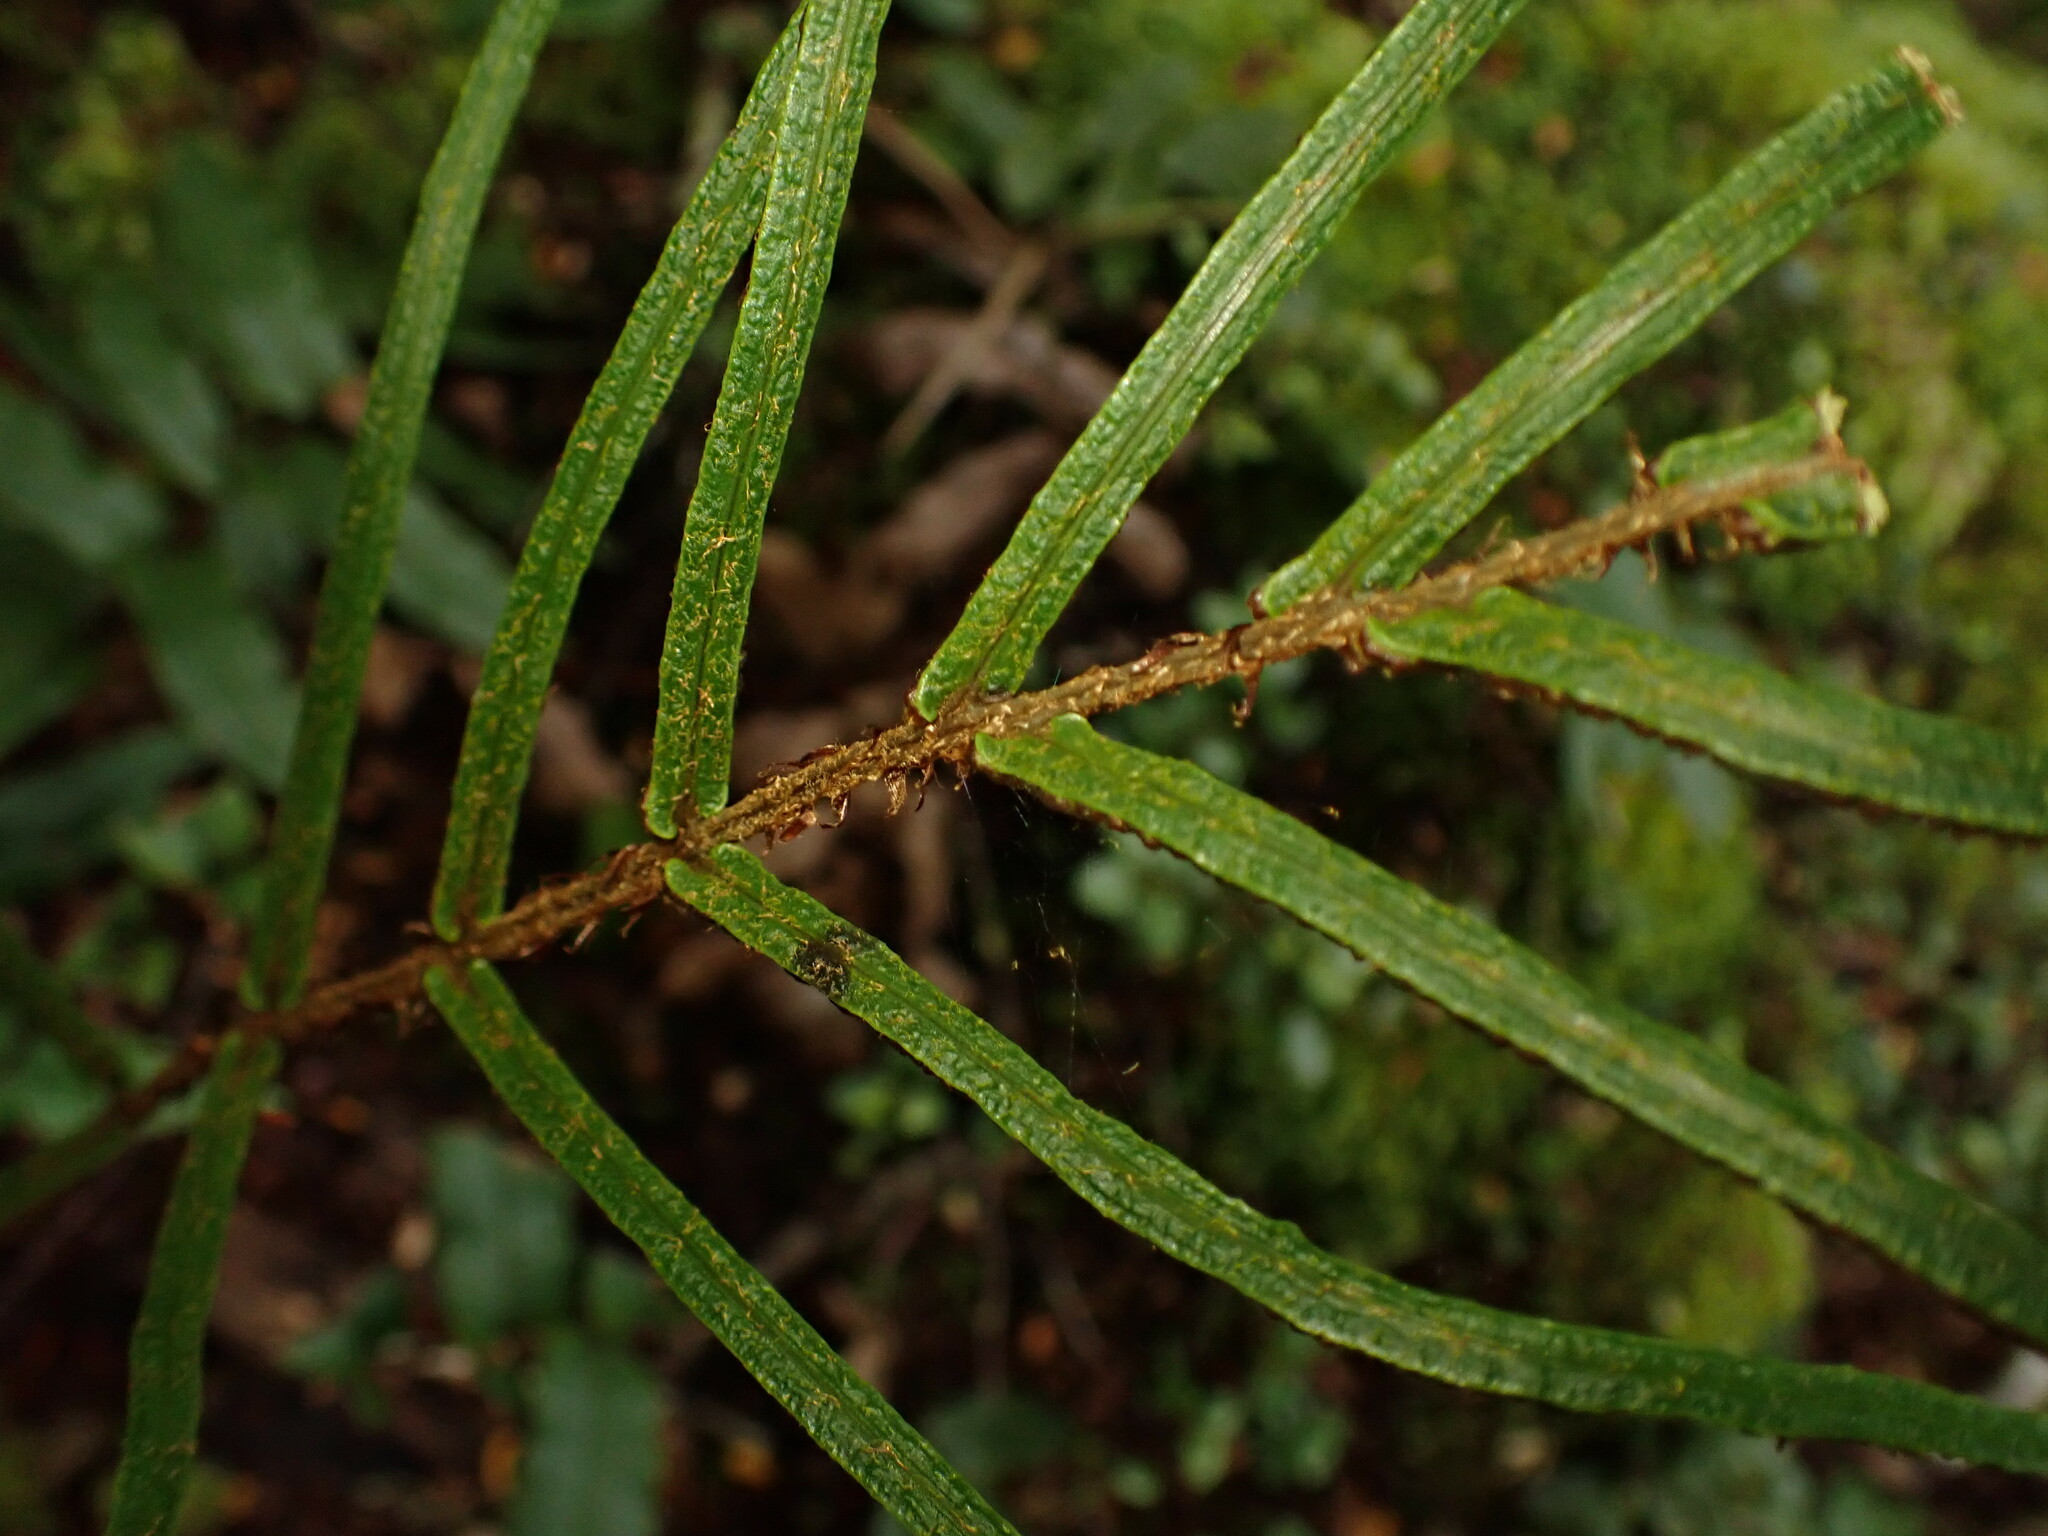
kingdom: Plantae
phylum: Tracheophyta
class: Polypodiopsida
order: Polypodiales
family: Blechnaceae
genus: Parablechnum
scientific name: Parablechnum procerum
